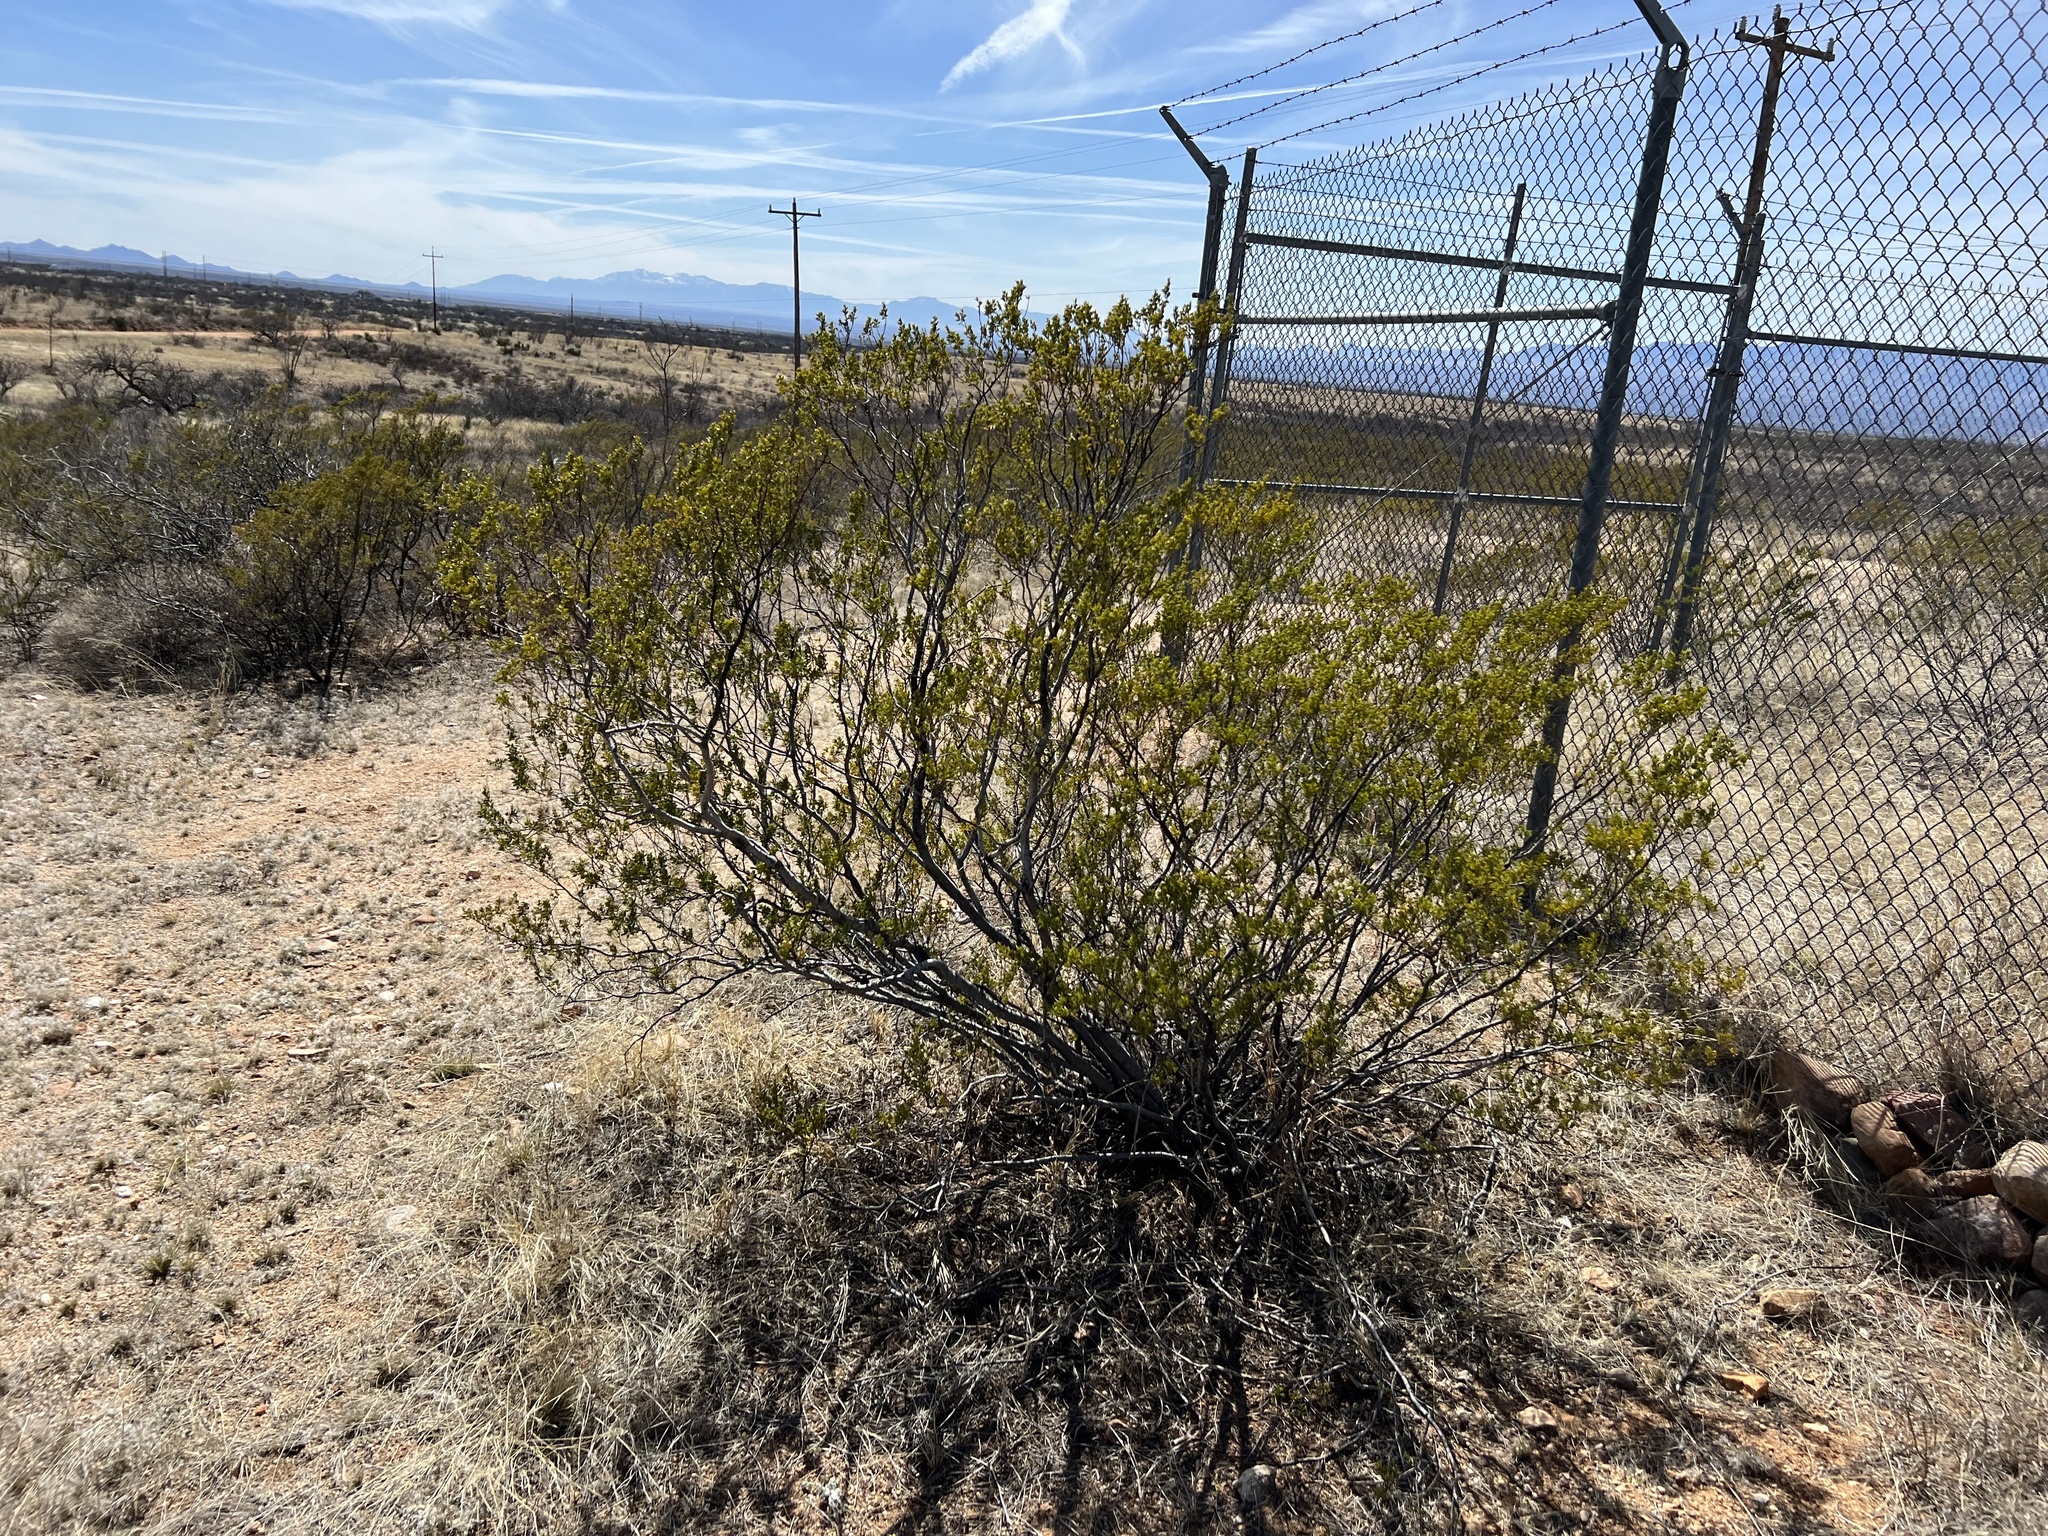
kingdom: Plantae
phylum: Tracheophyta
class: Magnoliopsida
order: Zygophyllales
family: Zygophyllaceae
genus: Larrea
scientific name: Larrea tridentata
